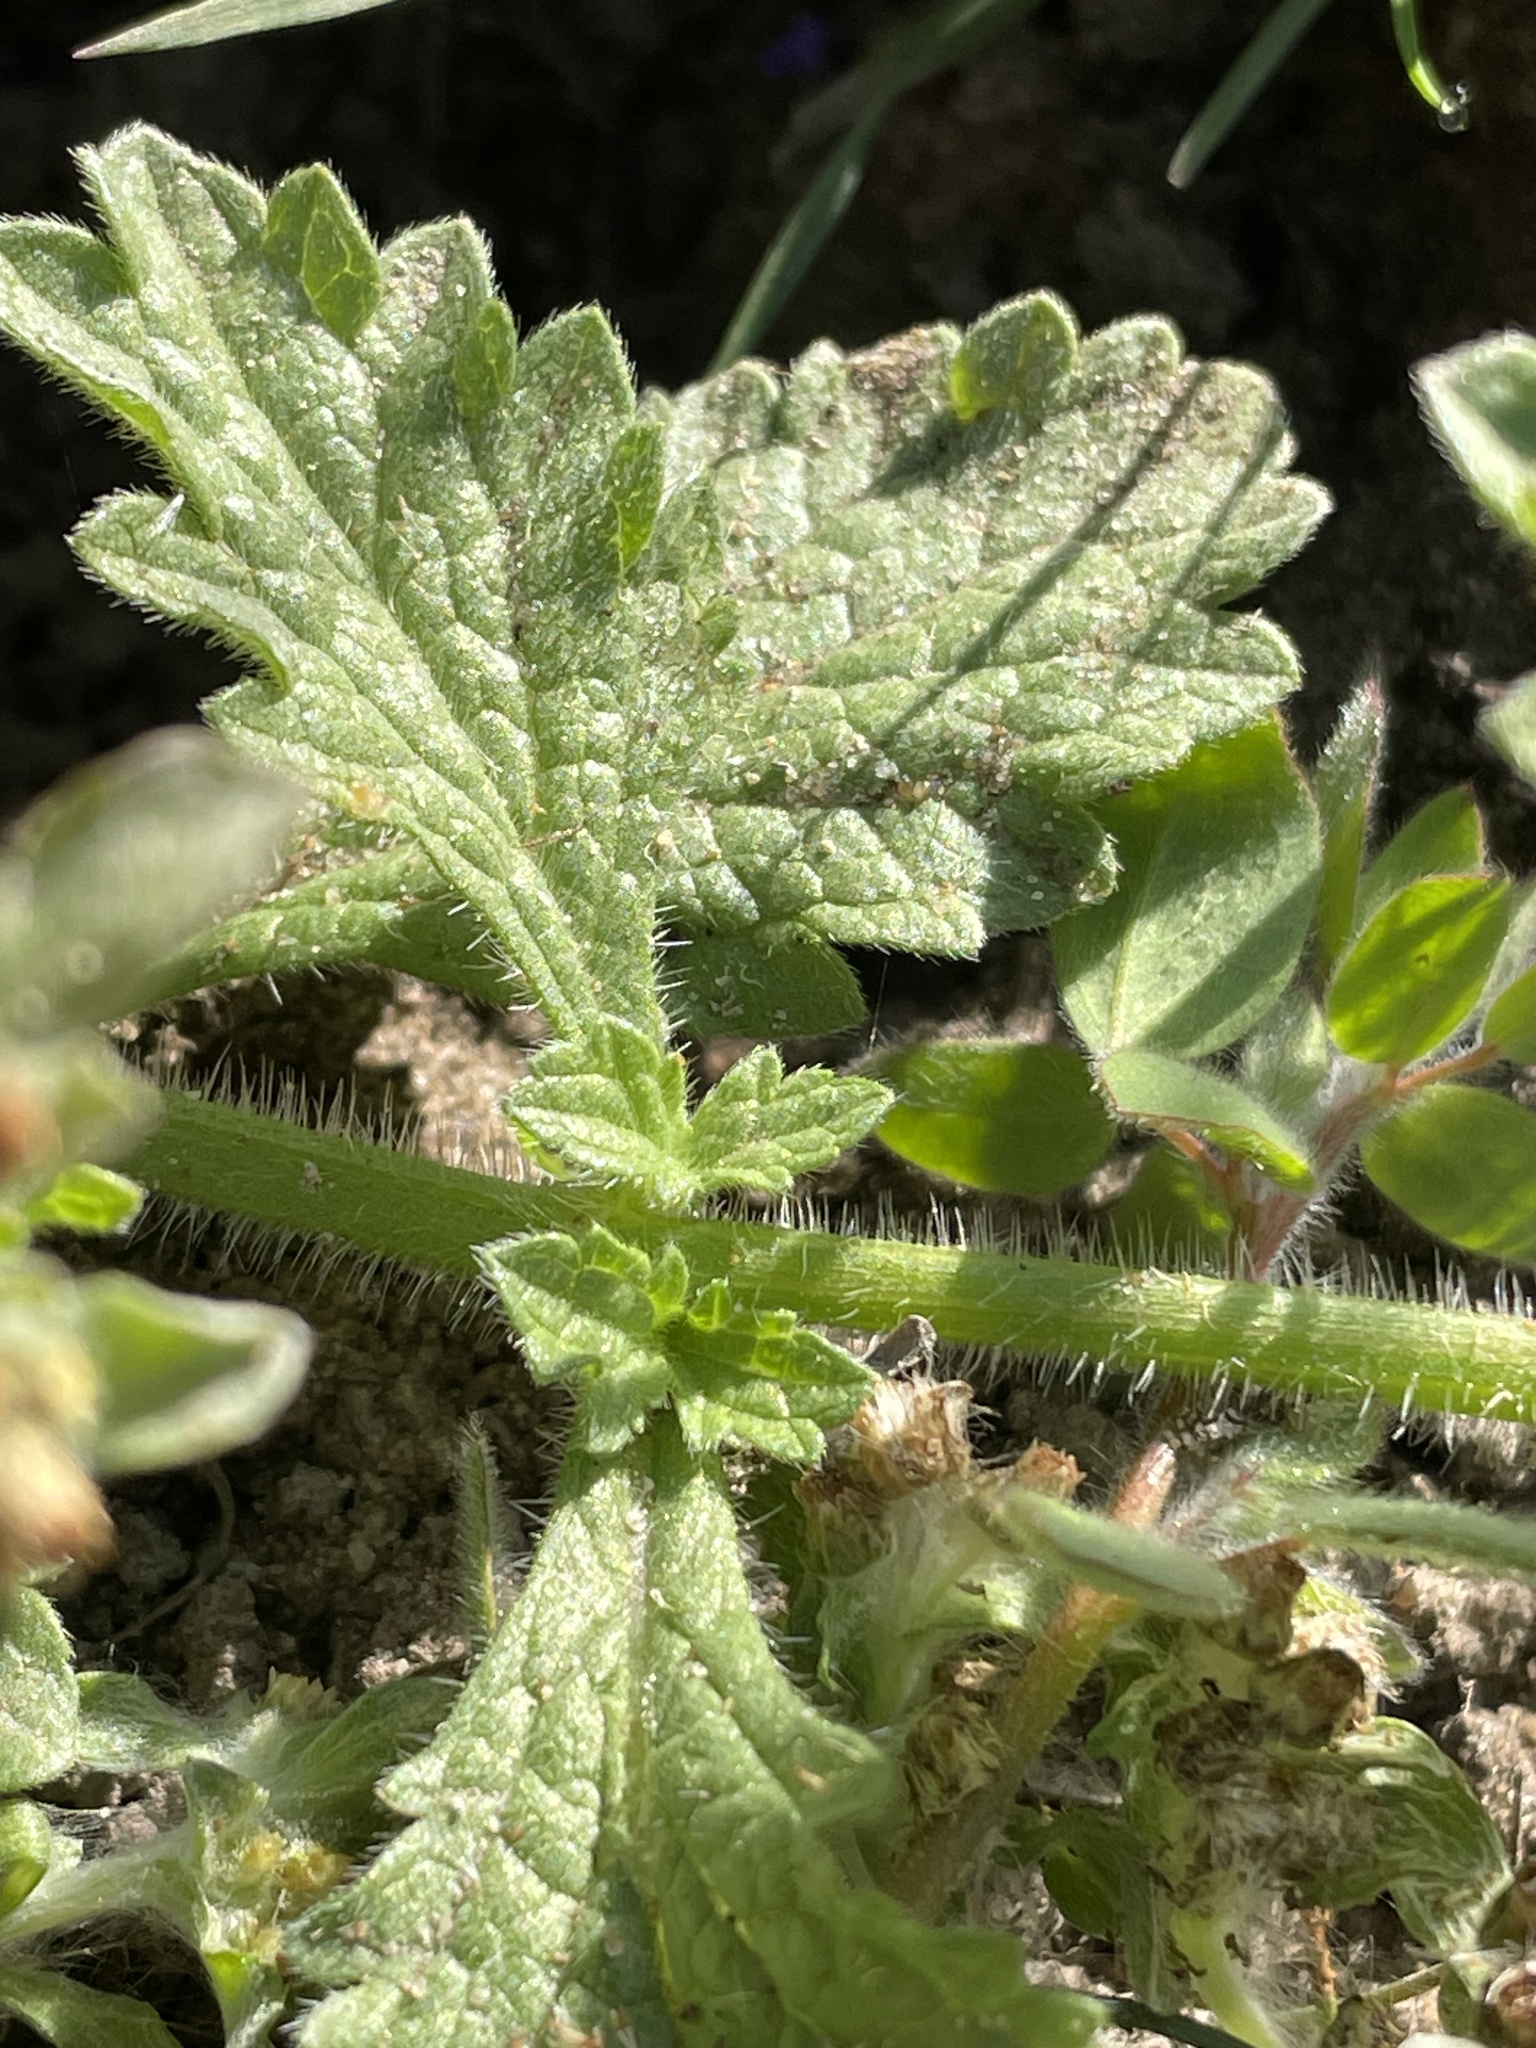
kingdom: Plantae
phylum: Tracheophyta
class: Magnoliopsida
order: Lamiales
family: Verbenaceae
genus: Verbena
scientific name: Verbena lasiostachys
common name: Vervain
